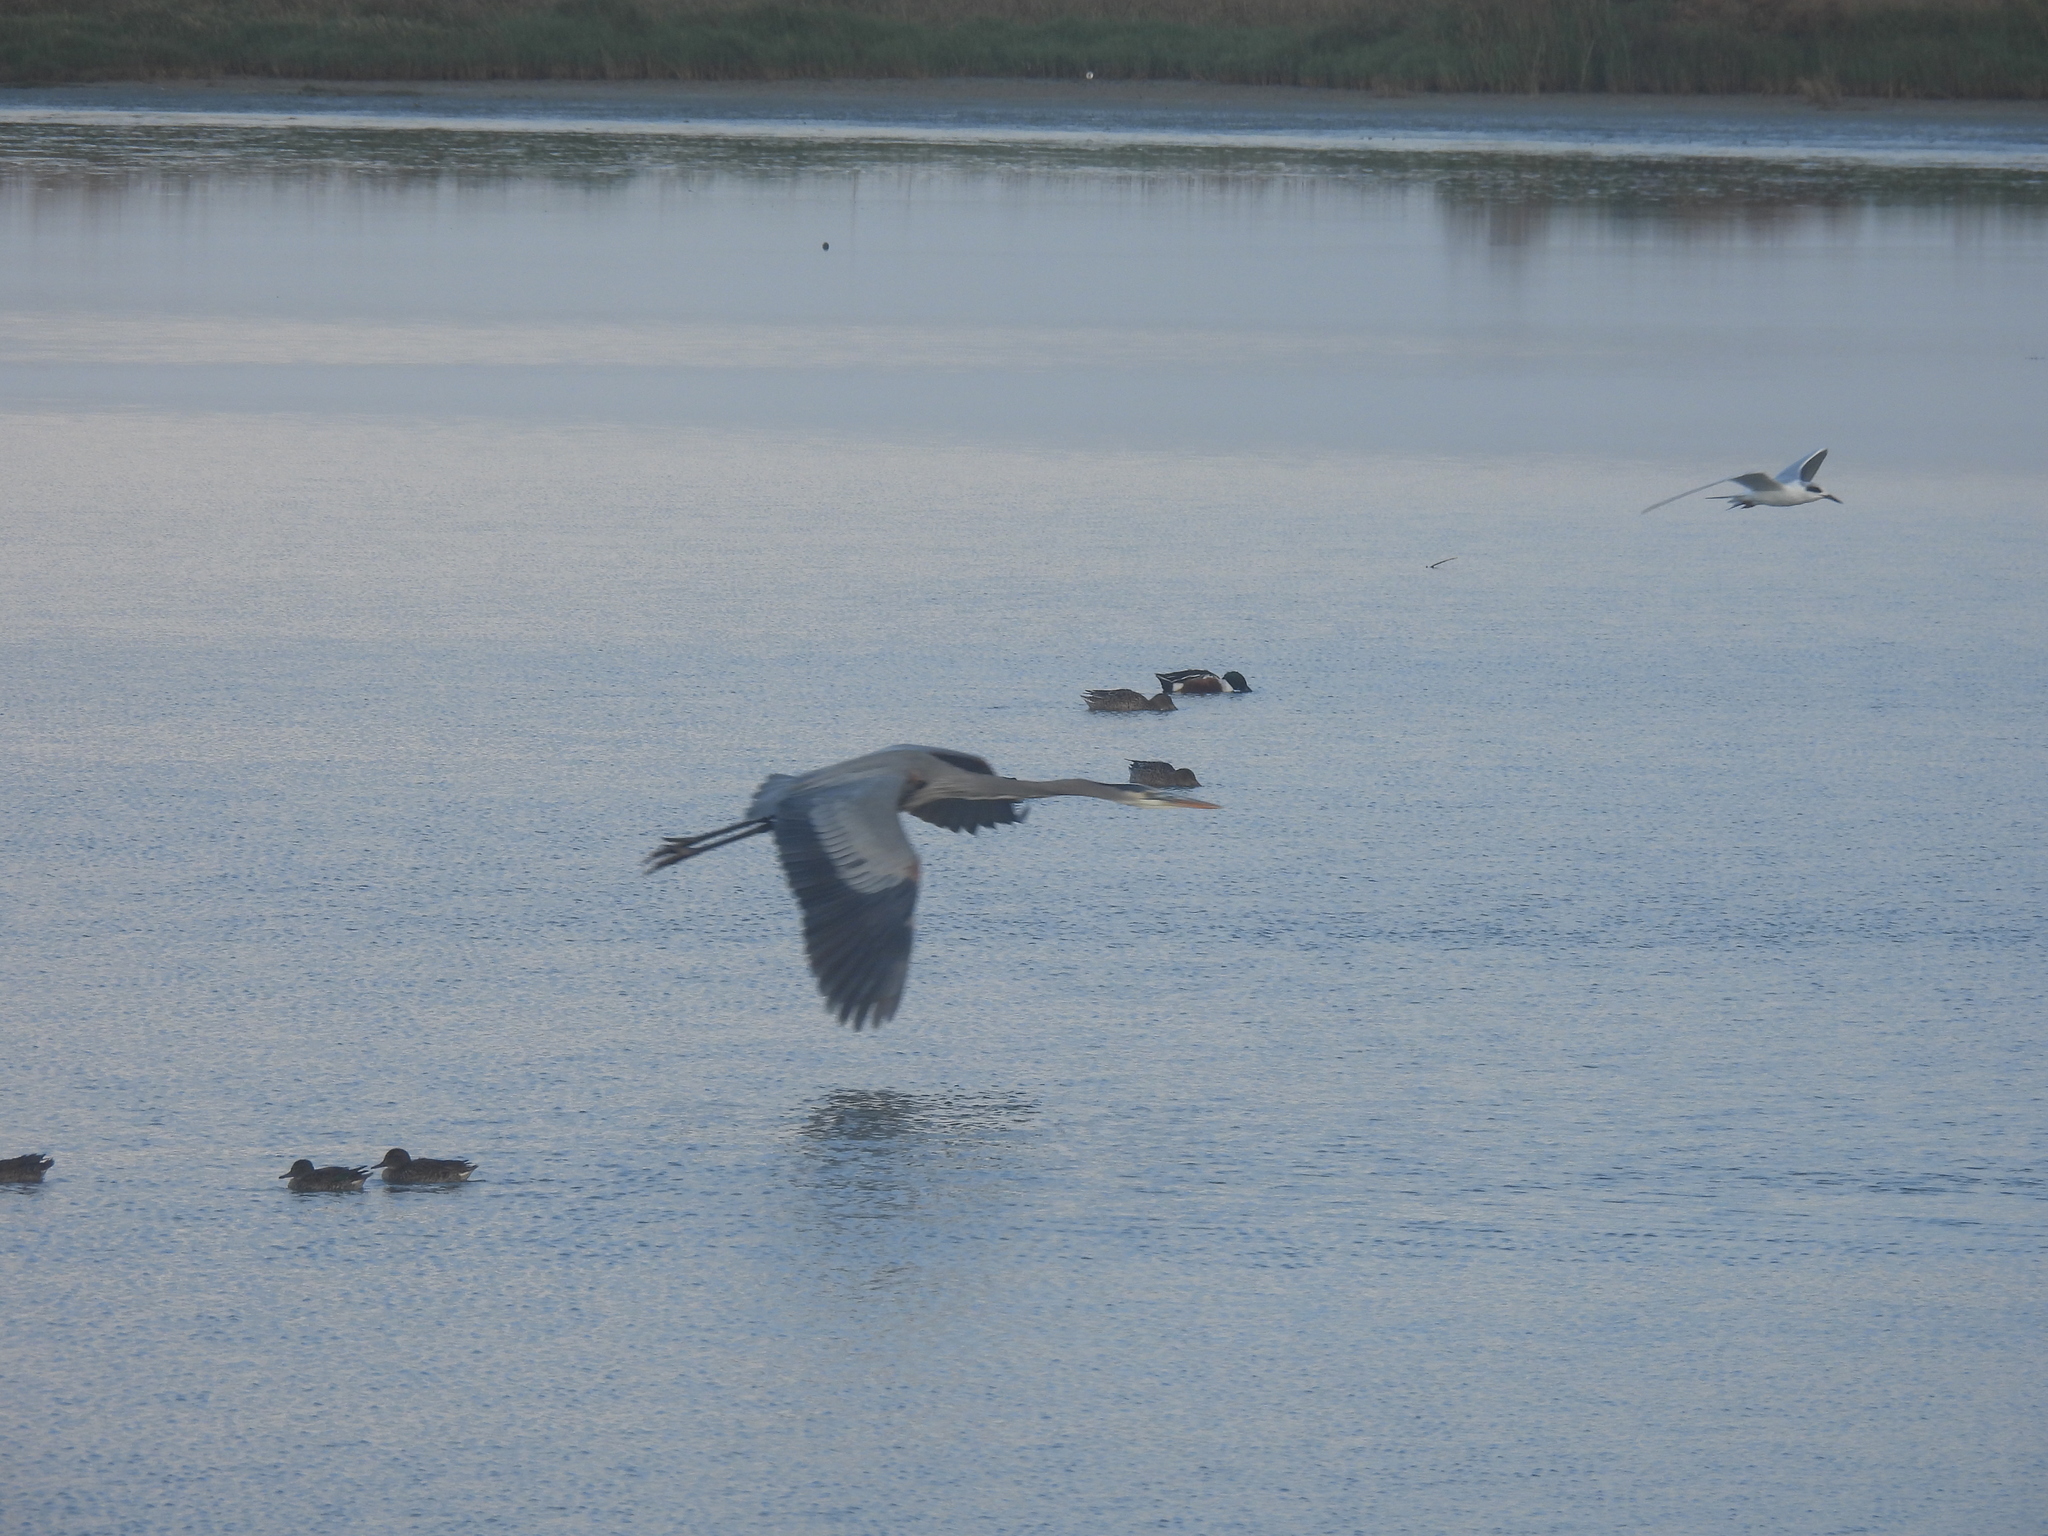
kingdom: Animalia
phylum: Chordata
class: Aves
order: Pelecaniformes
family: Ardeidae
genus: Ardea
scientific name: Ardea herodias
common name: Great blue heron
